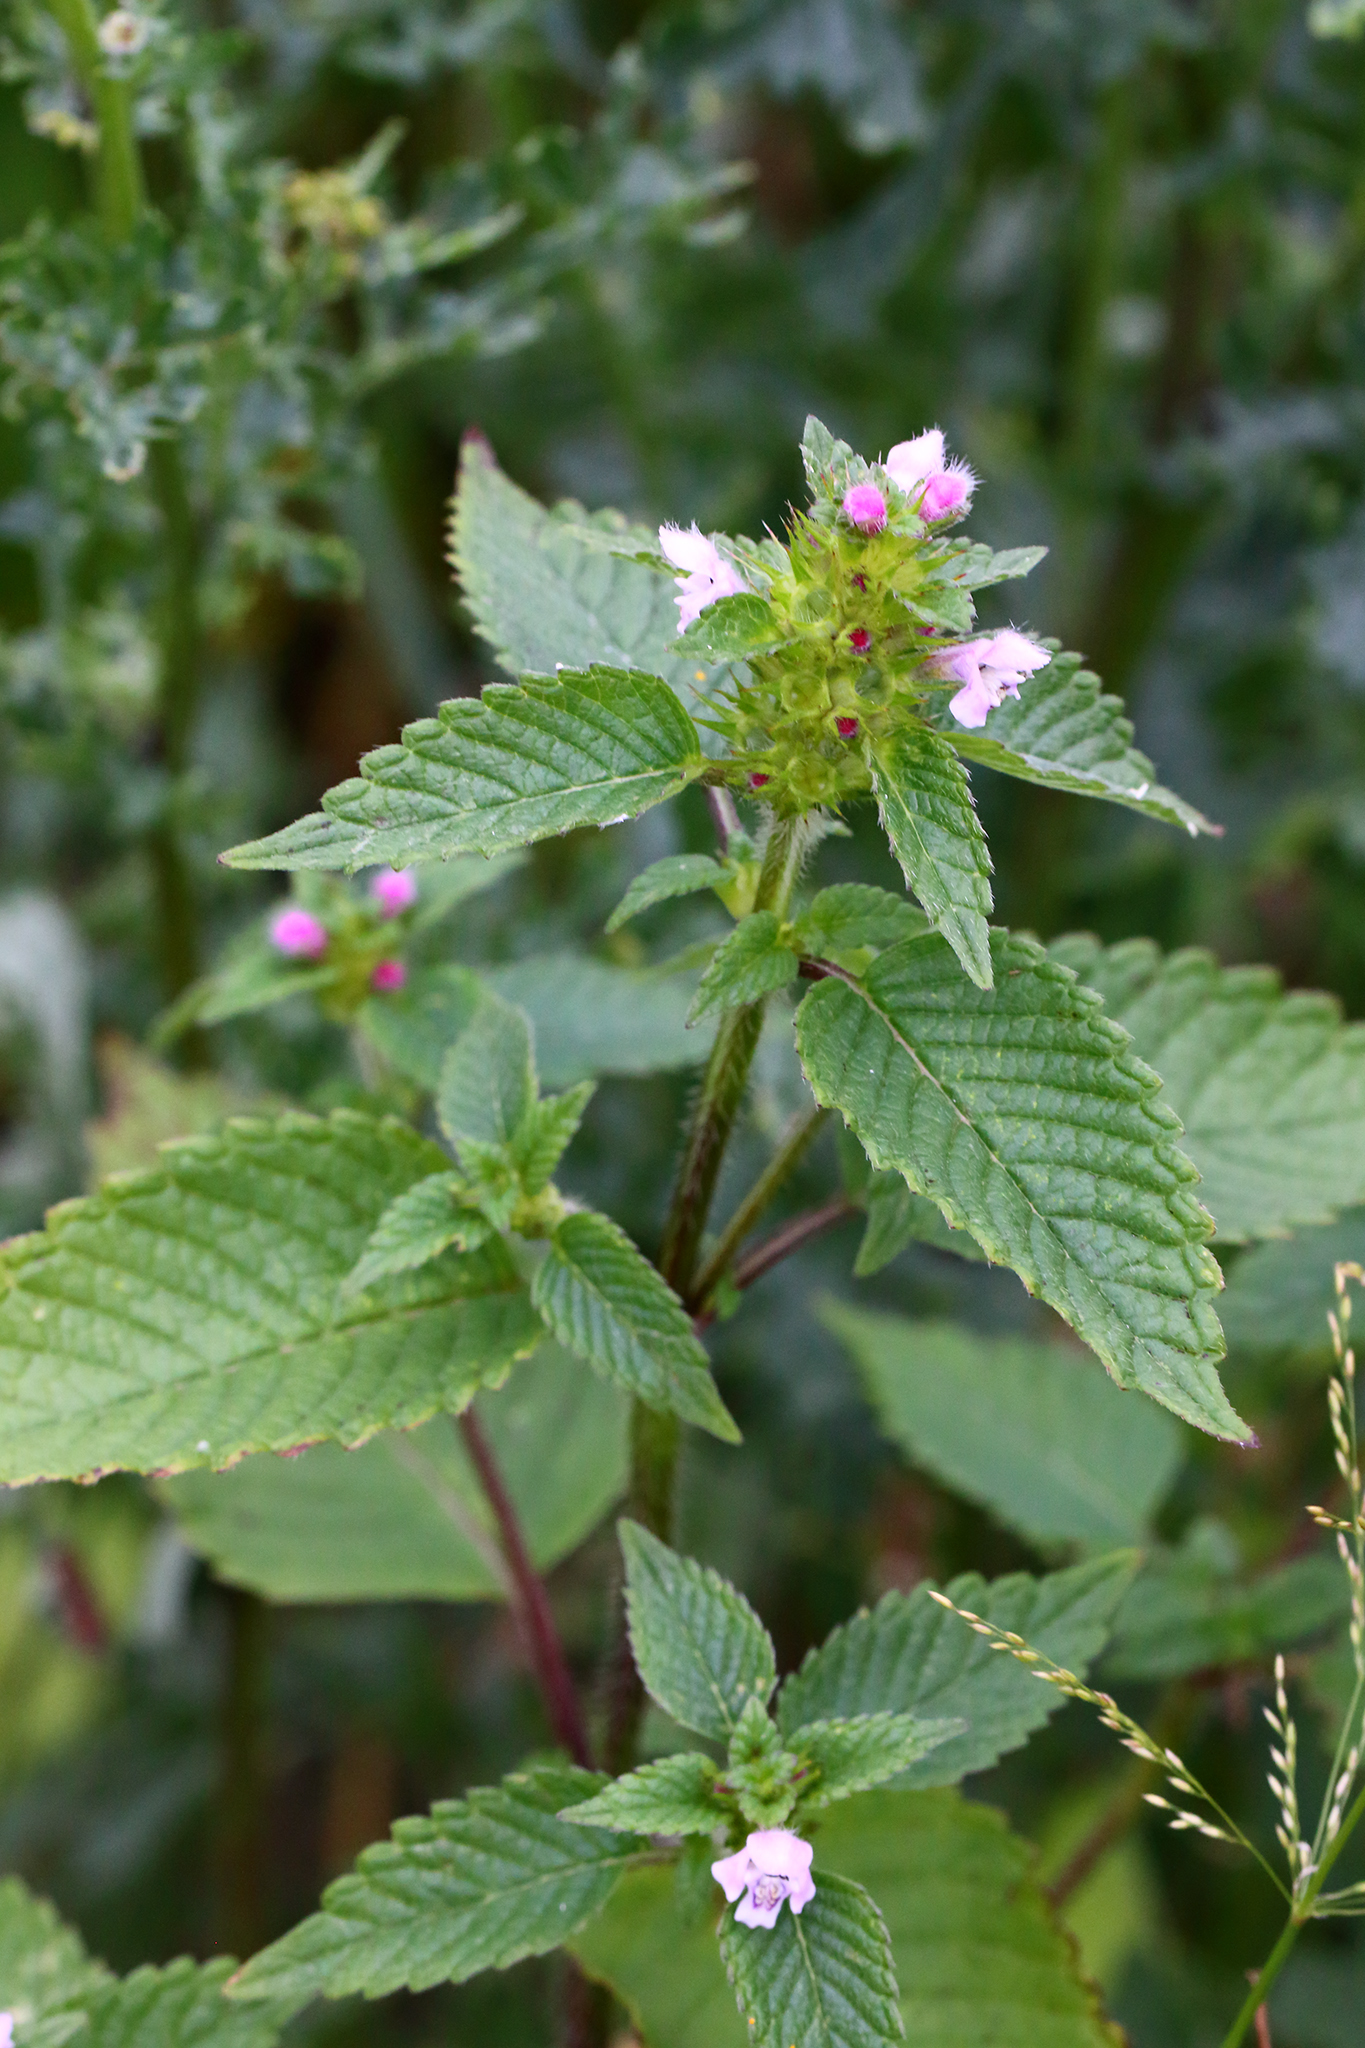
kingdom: Plantae
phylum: Tracheophyta
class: Magnoliopsida
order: Lamiales
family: Lamiaceae
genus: Galeopsis
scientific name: Galeopsis tetrahit
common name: Common hemp-nettle
